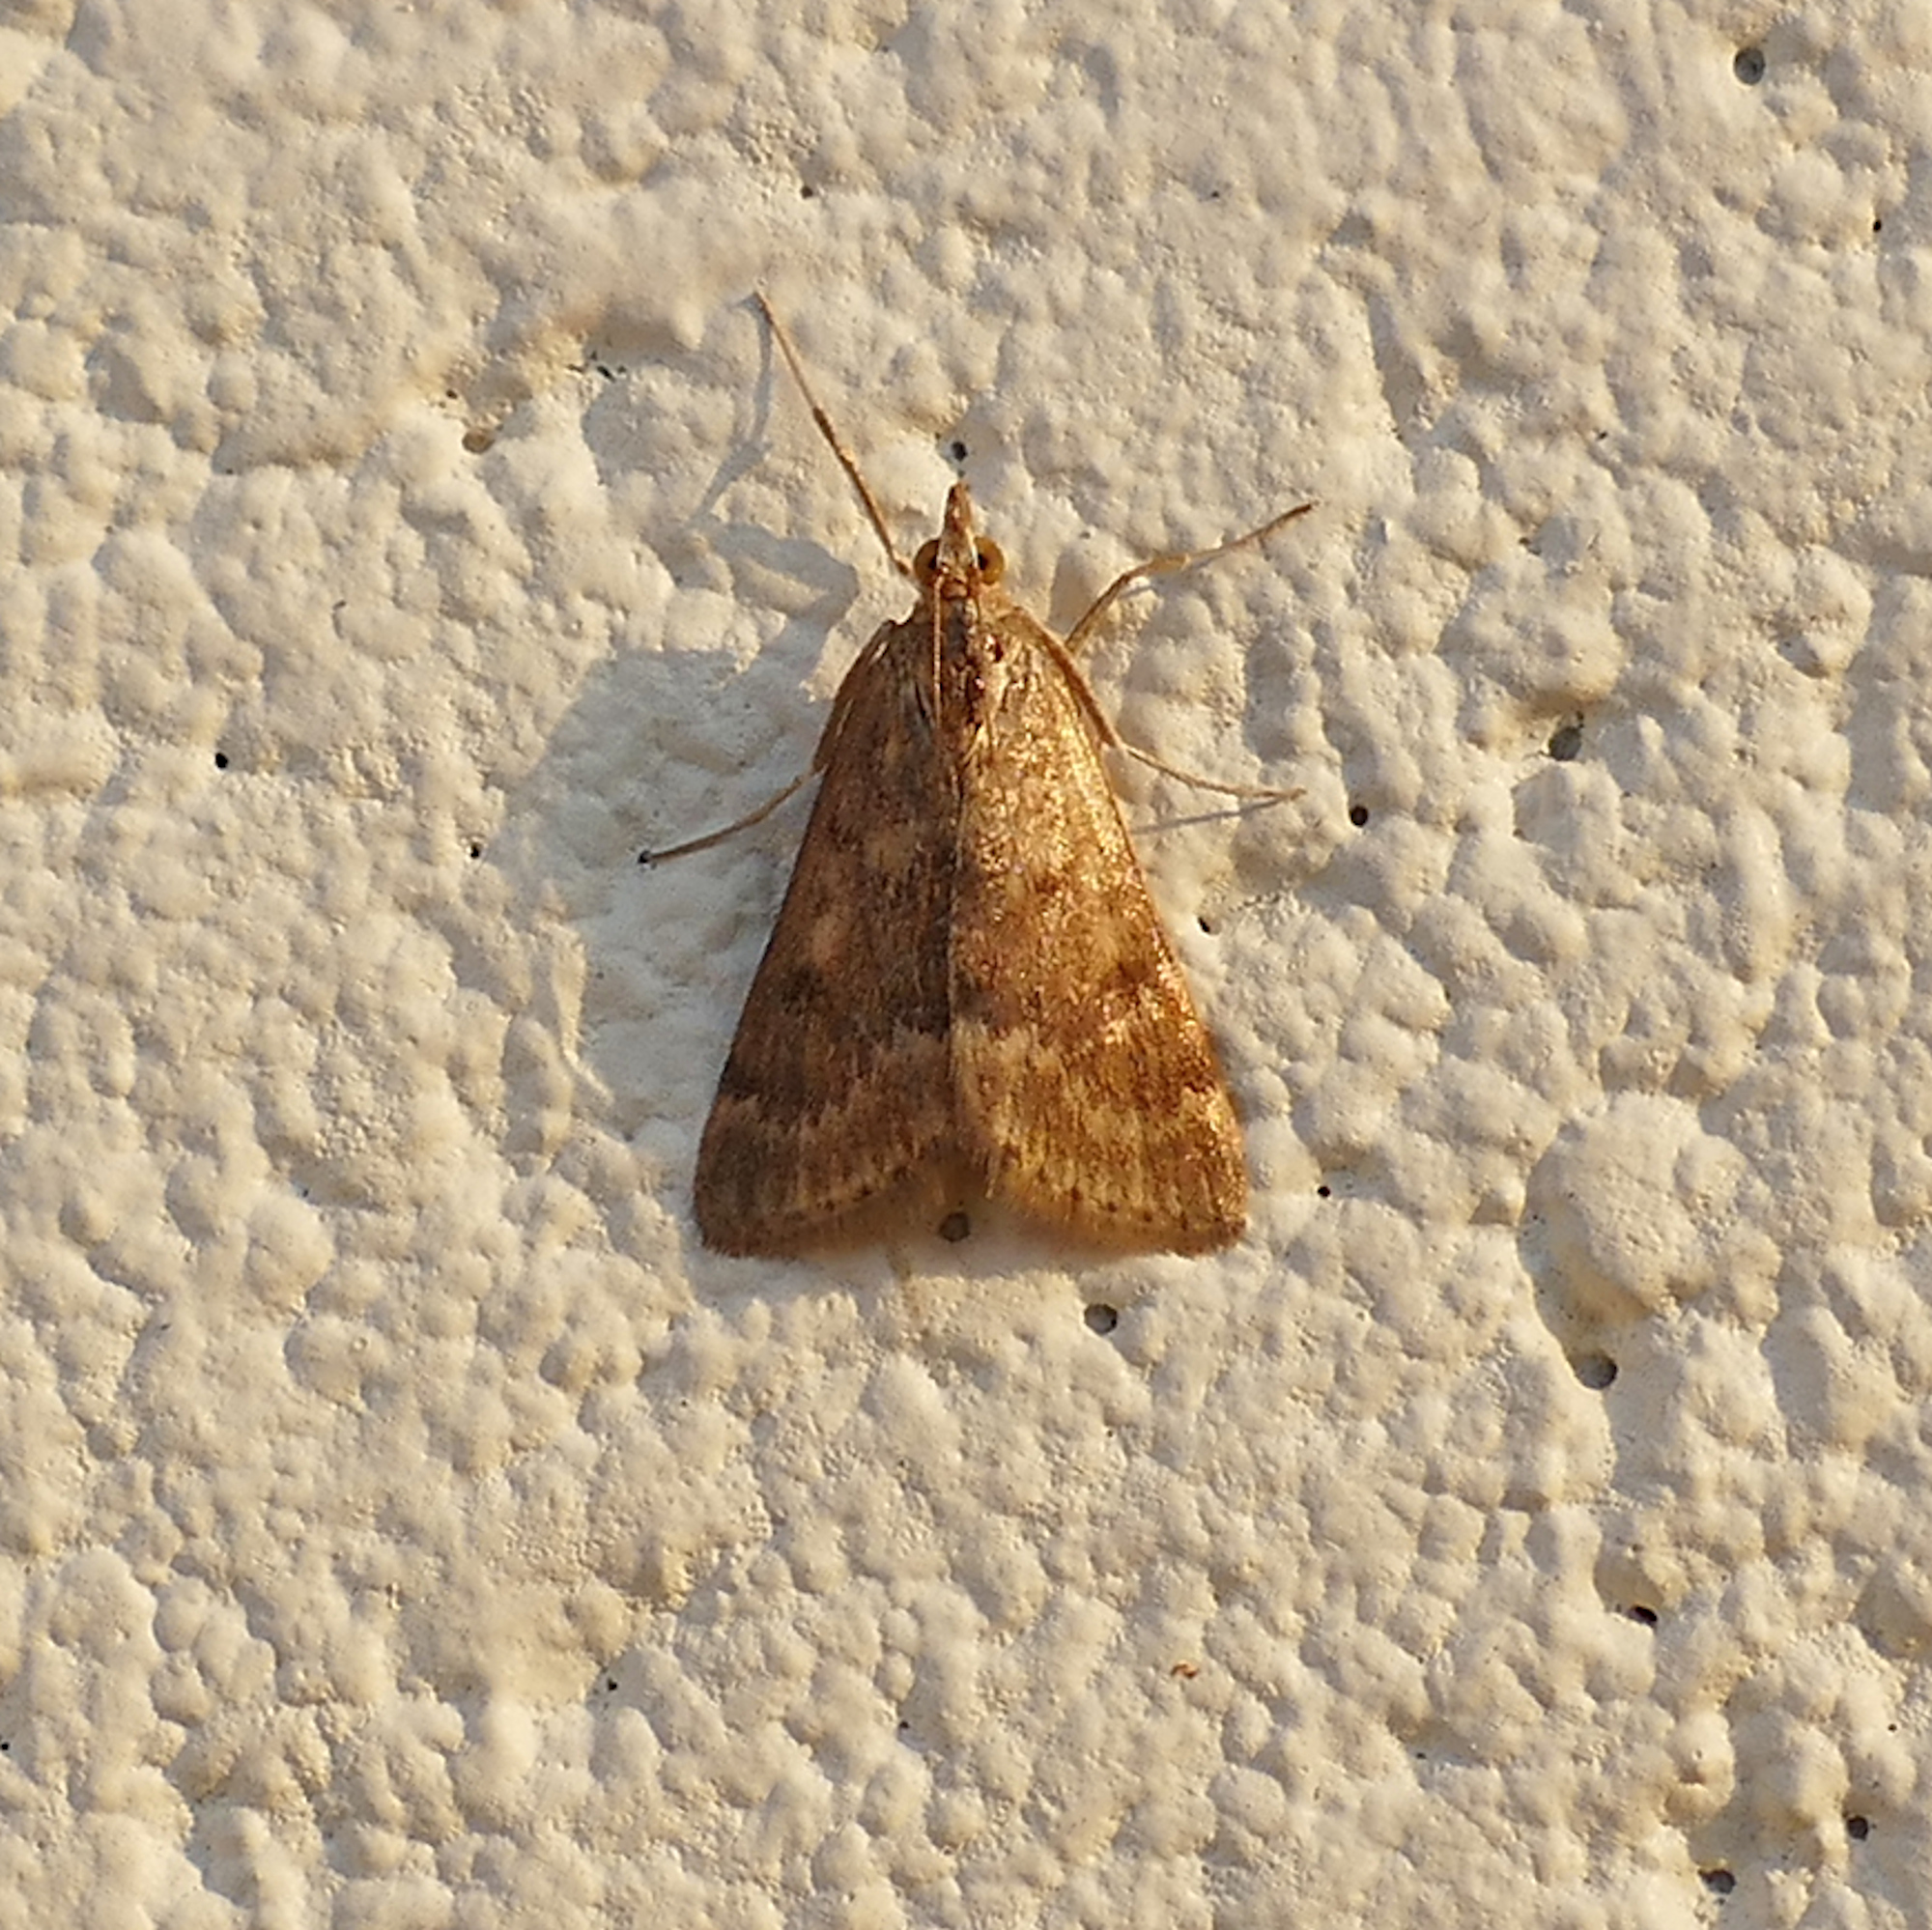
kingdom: Animalia
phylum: Arthropoda
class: Insecta
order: Lepidoptera
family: Crambidae
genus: Achyra
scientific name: Achyra rantalis
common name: Garden webworm
